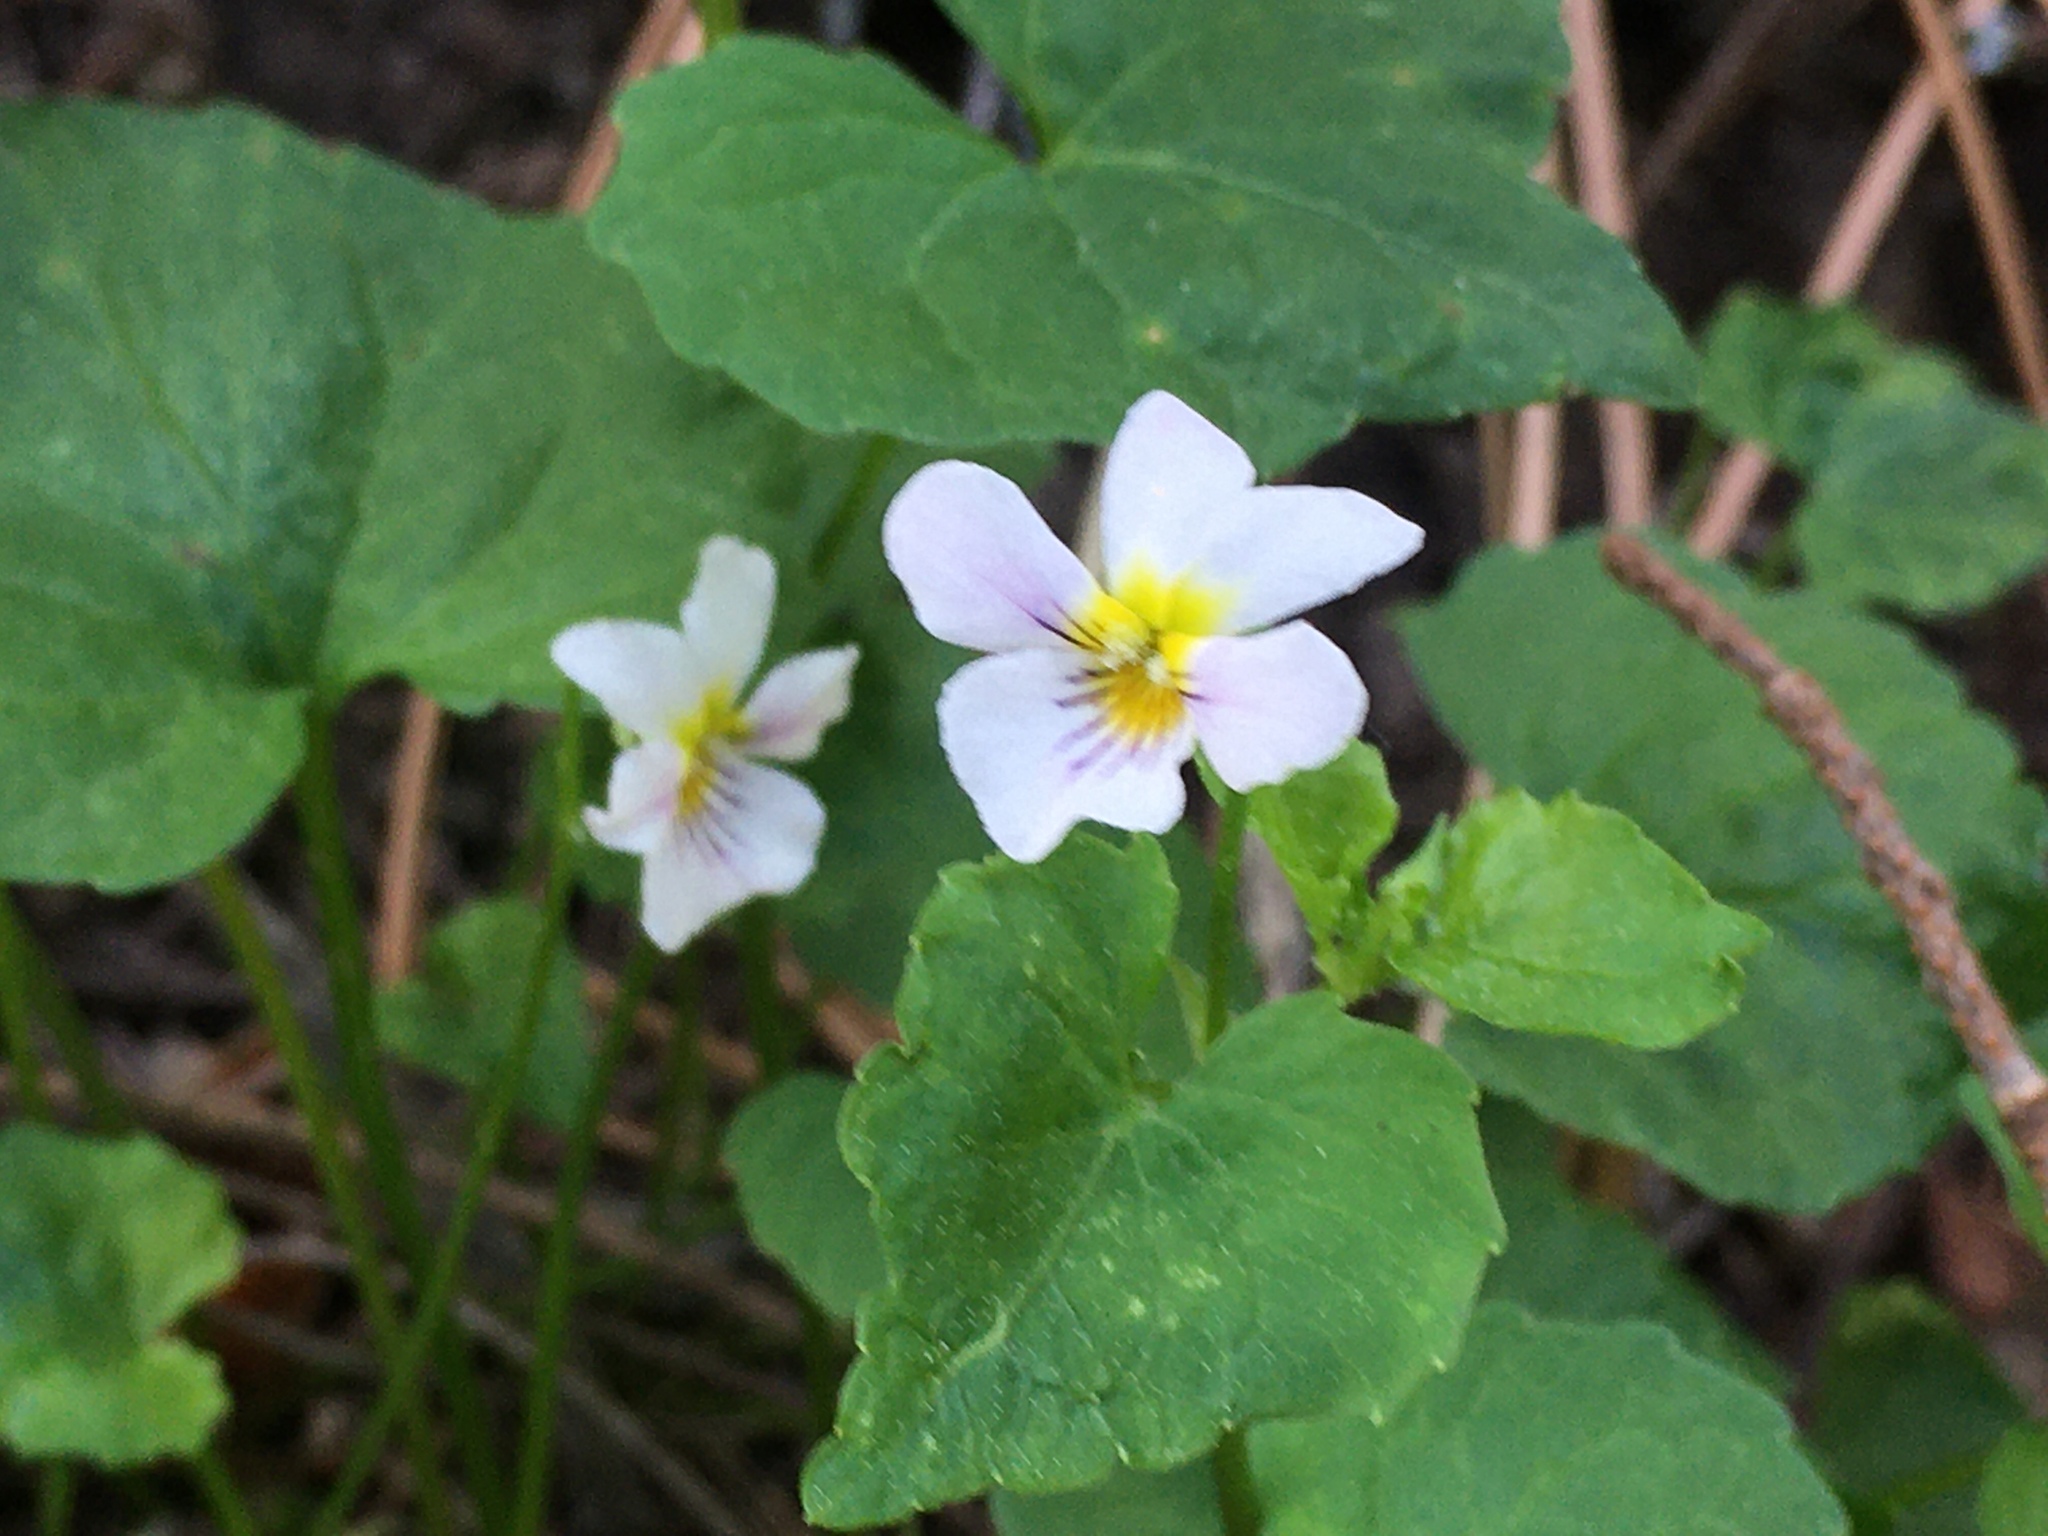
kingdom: Plantae
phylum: Tracheophyta
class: Magnoliopsida
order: Malpighiales
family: Violaceae
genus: Viola
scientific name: Viola canadensis
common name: Canada violet
